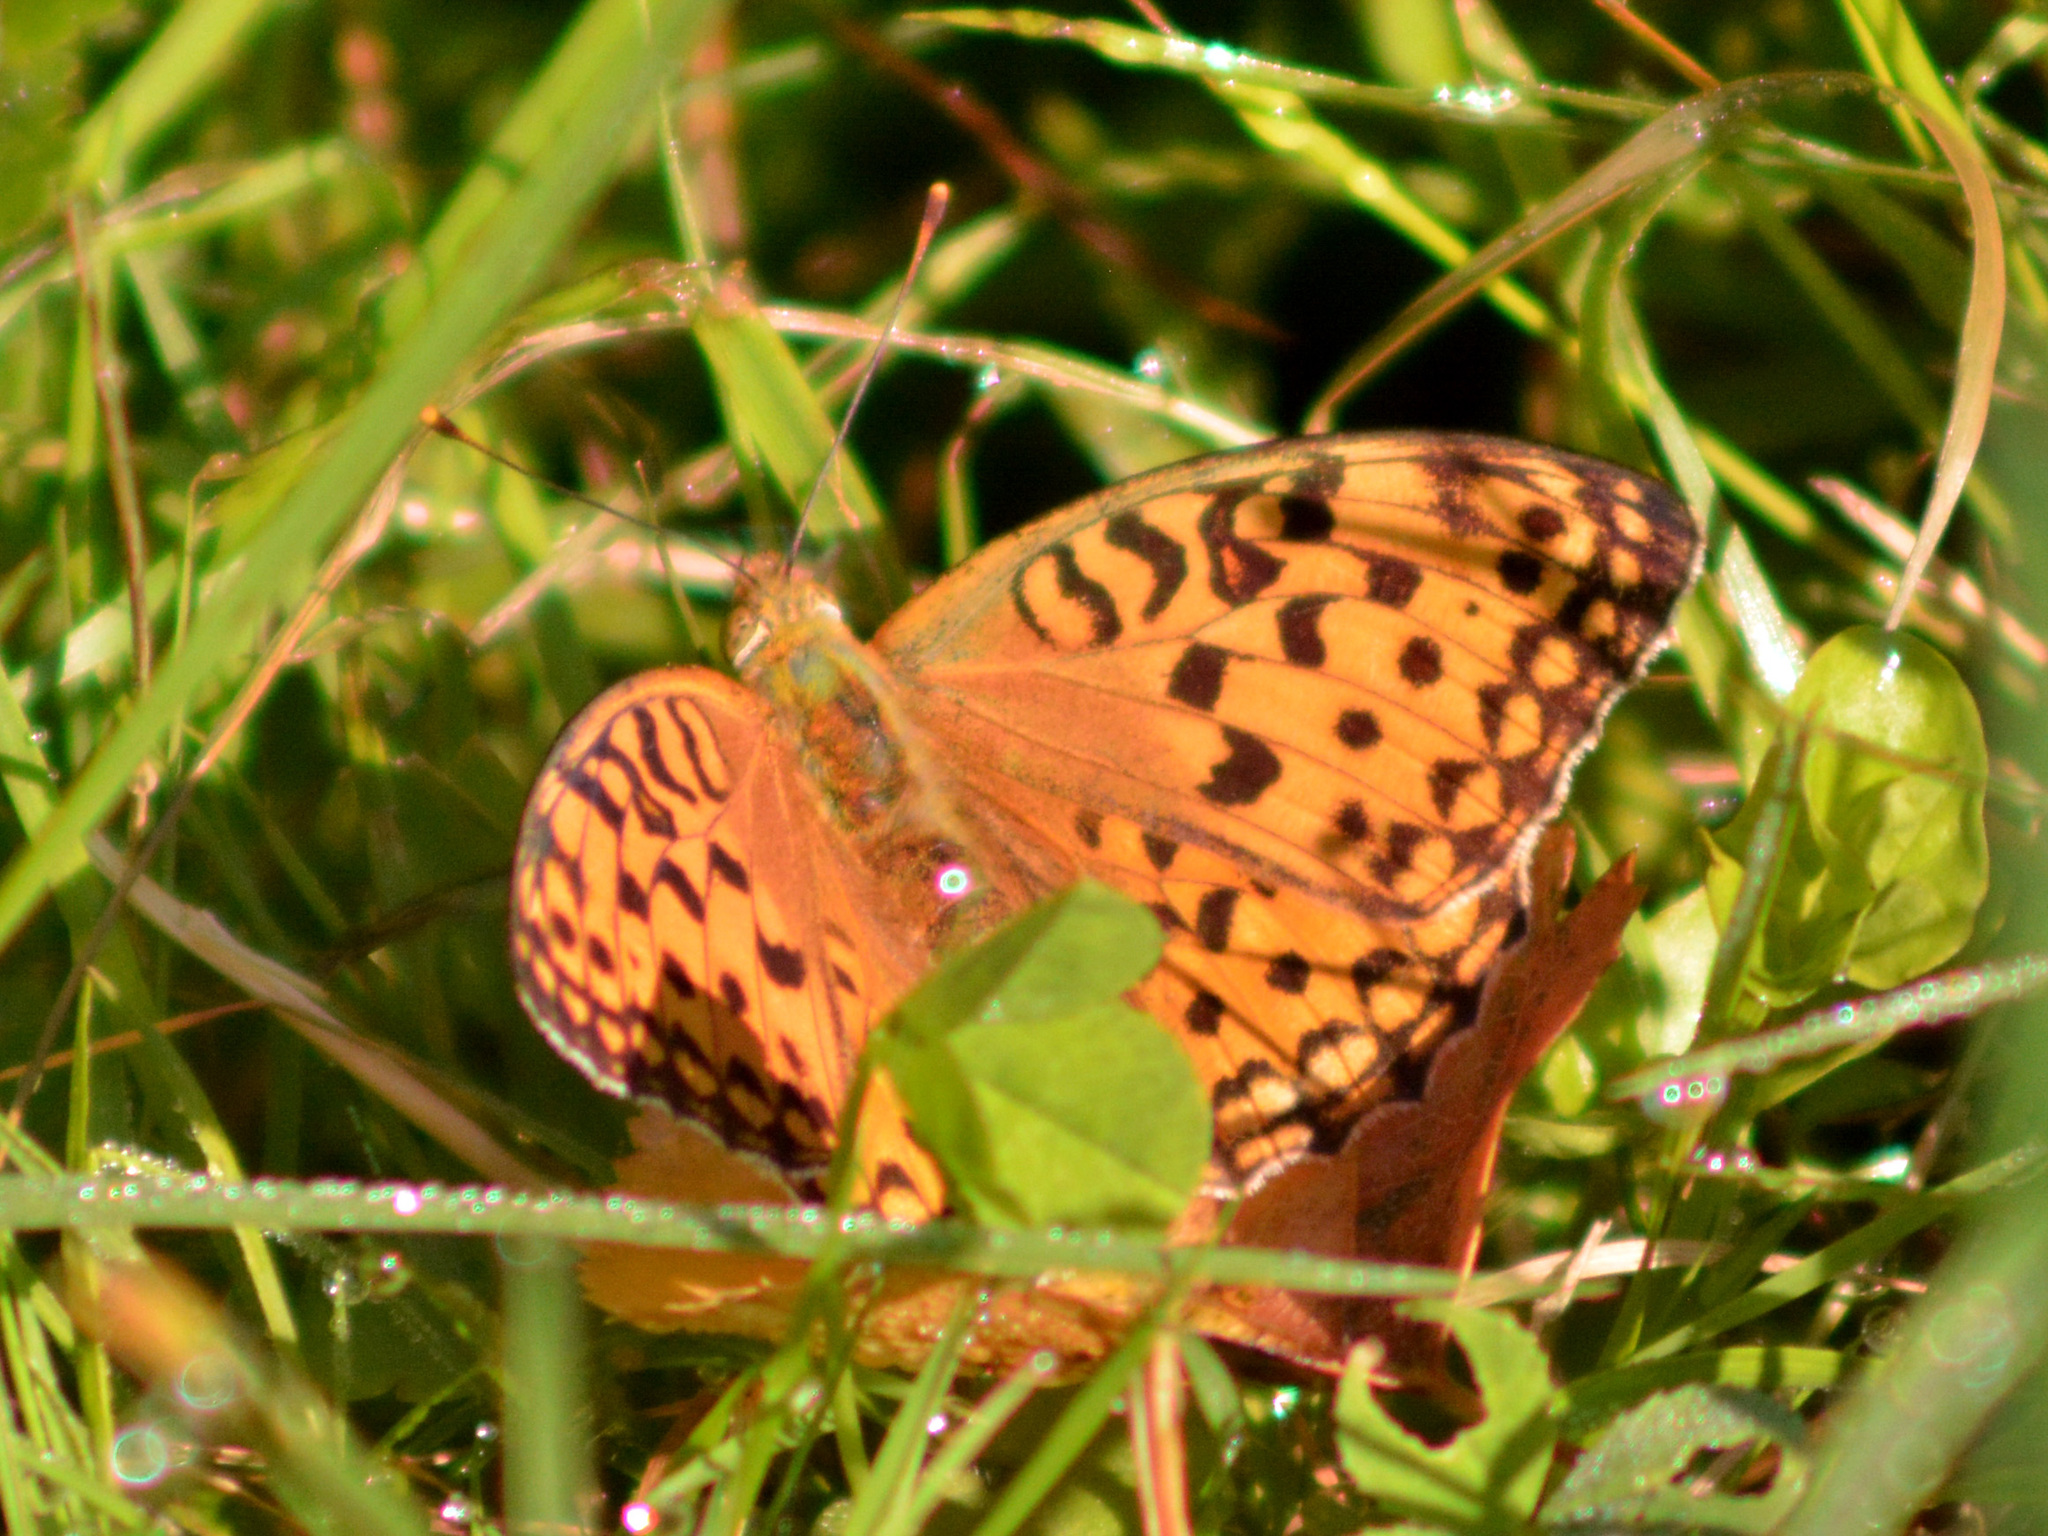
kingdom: Animalia
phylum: Arthropoda
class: Insecta
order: Lepidoptera
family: Nymphalidae
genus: Fabriciana
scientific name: Fabriciana adippe
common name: High brown fritillary
